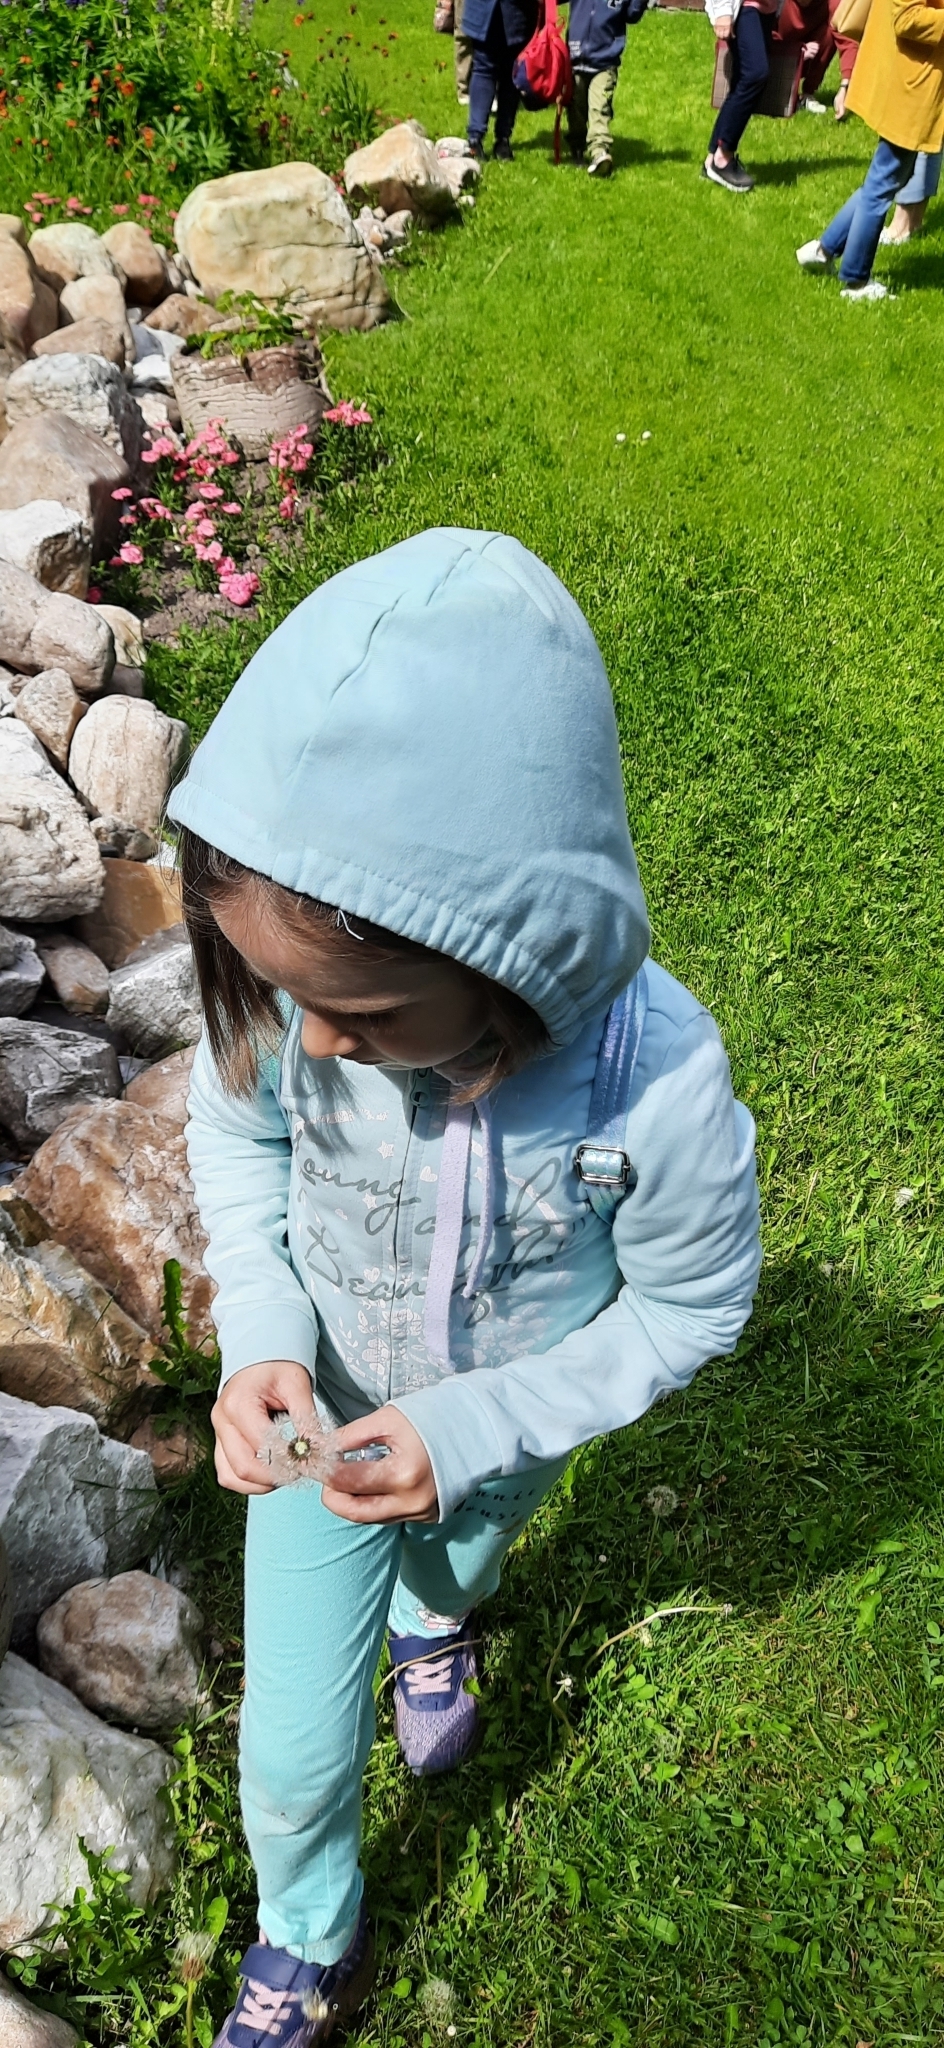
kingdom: Plantae
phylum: Tracheophyta
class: Magnoliopsida
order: Asterales
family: Asteraceae
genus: Taraxacum
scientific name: Taraxacum officinale
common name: Common dandelion
